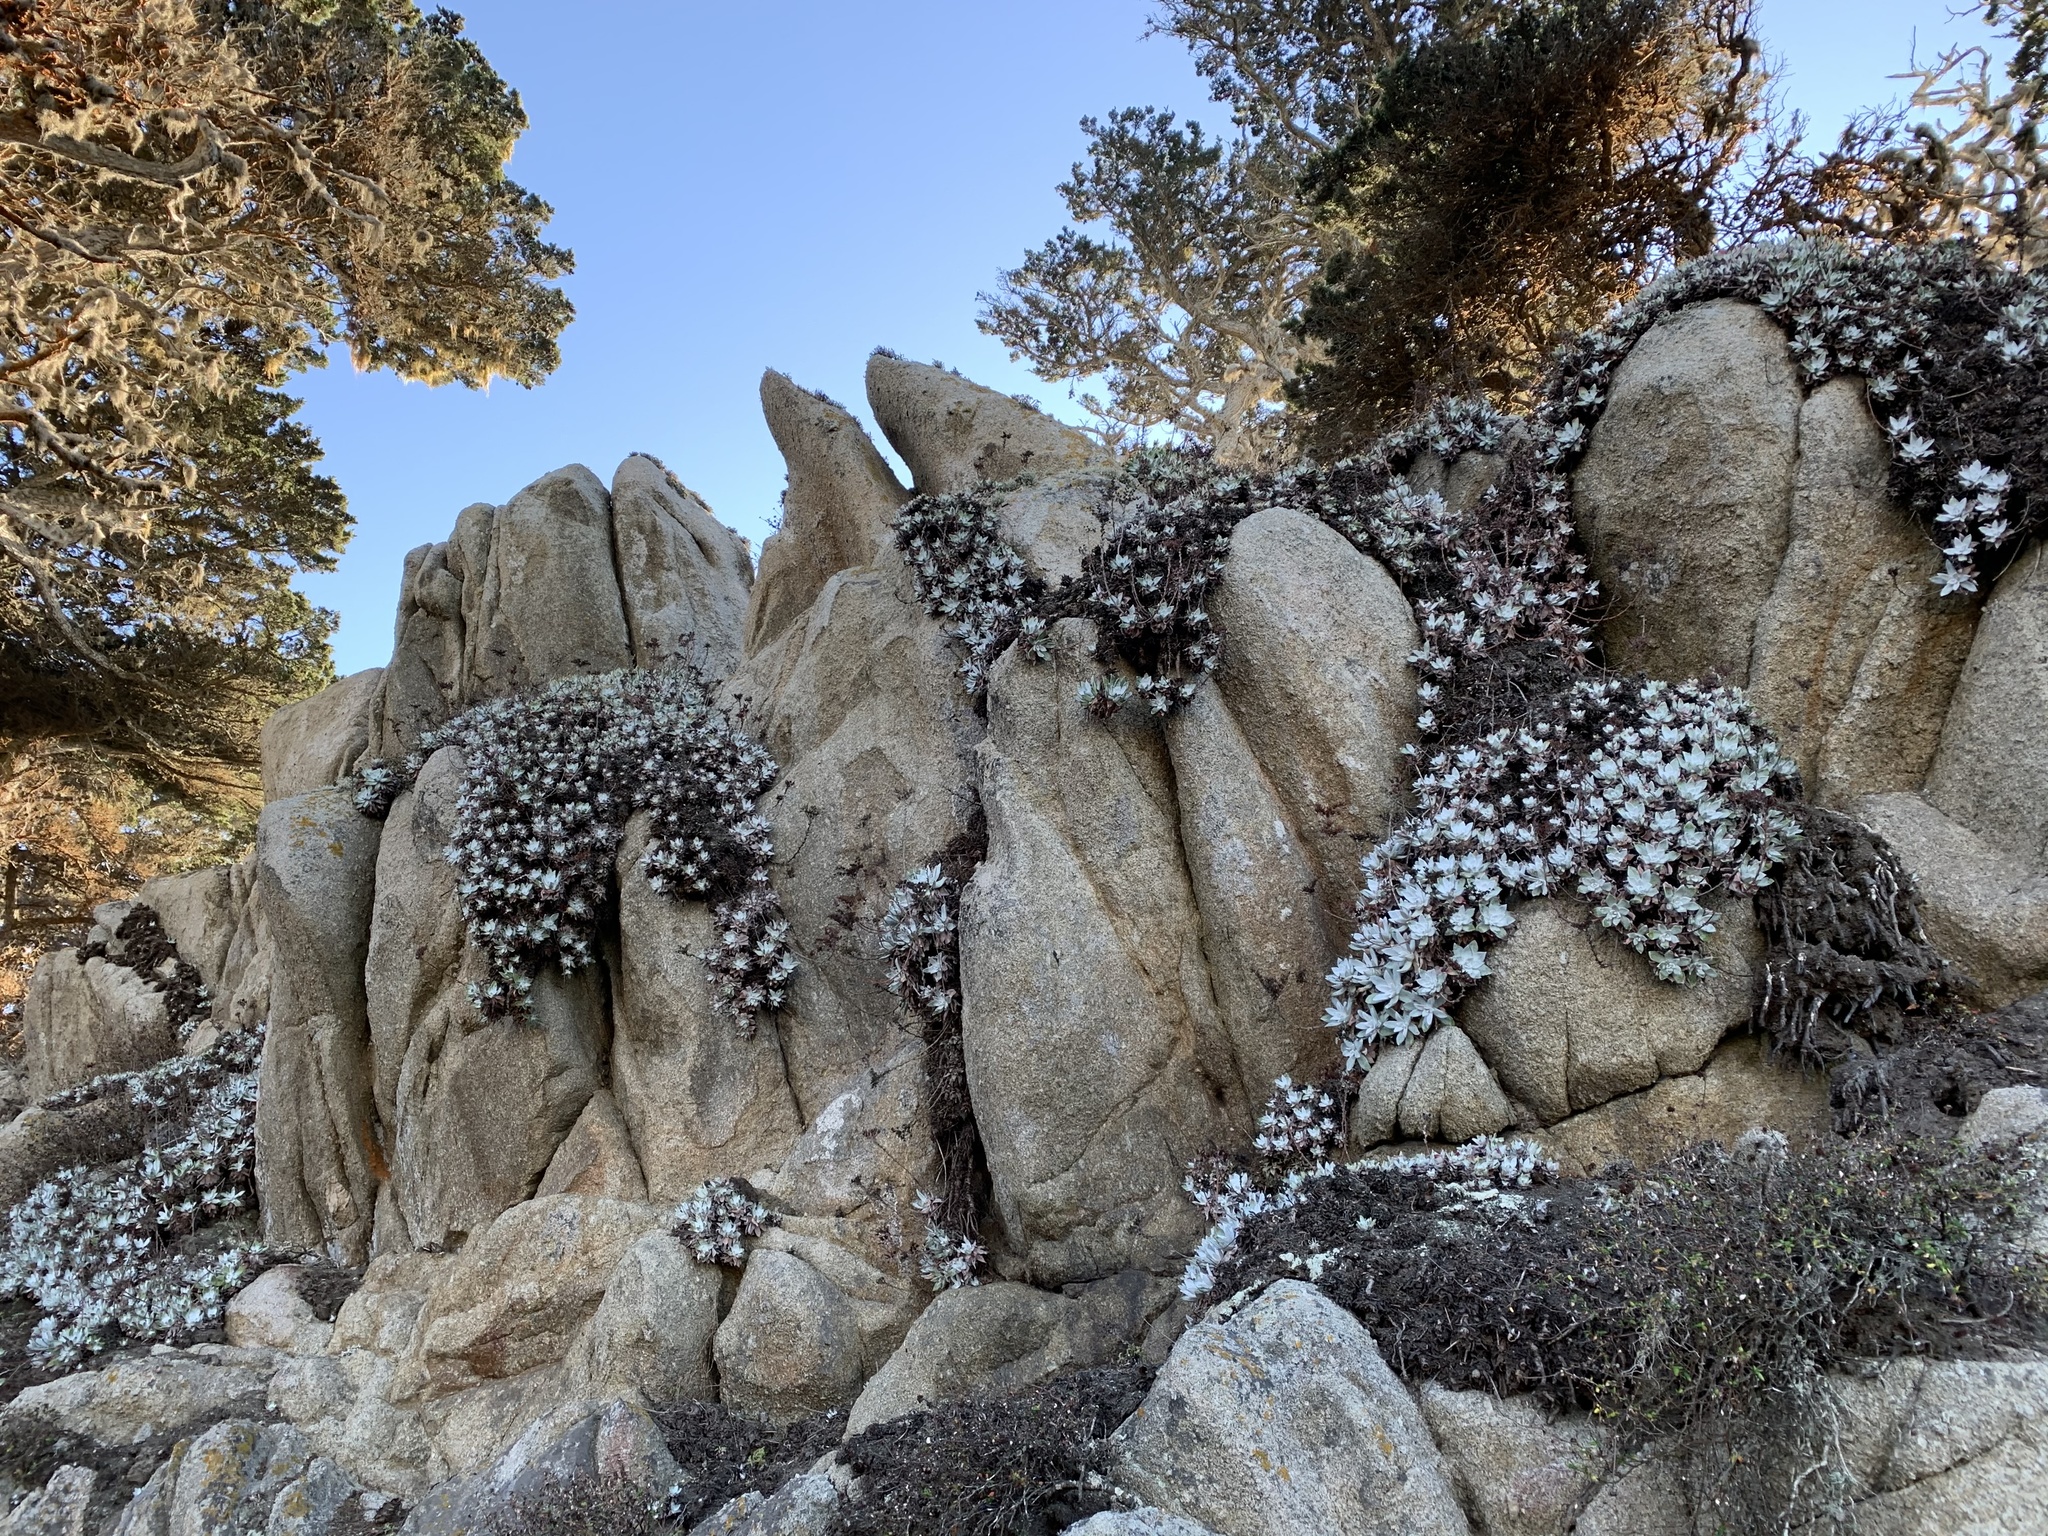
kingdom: Plantae
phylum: Tracheophyta
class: Magnoliopsida
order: Saxifragales
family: Crassulaceae
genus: Dudleya
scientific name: Dudleya farinosa
